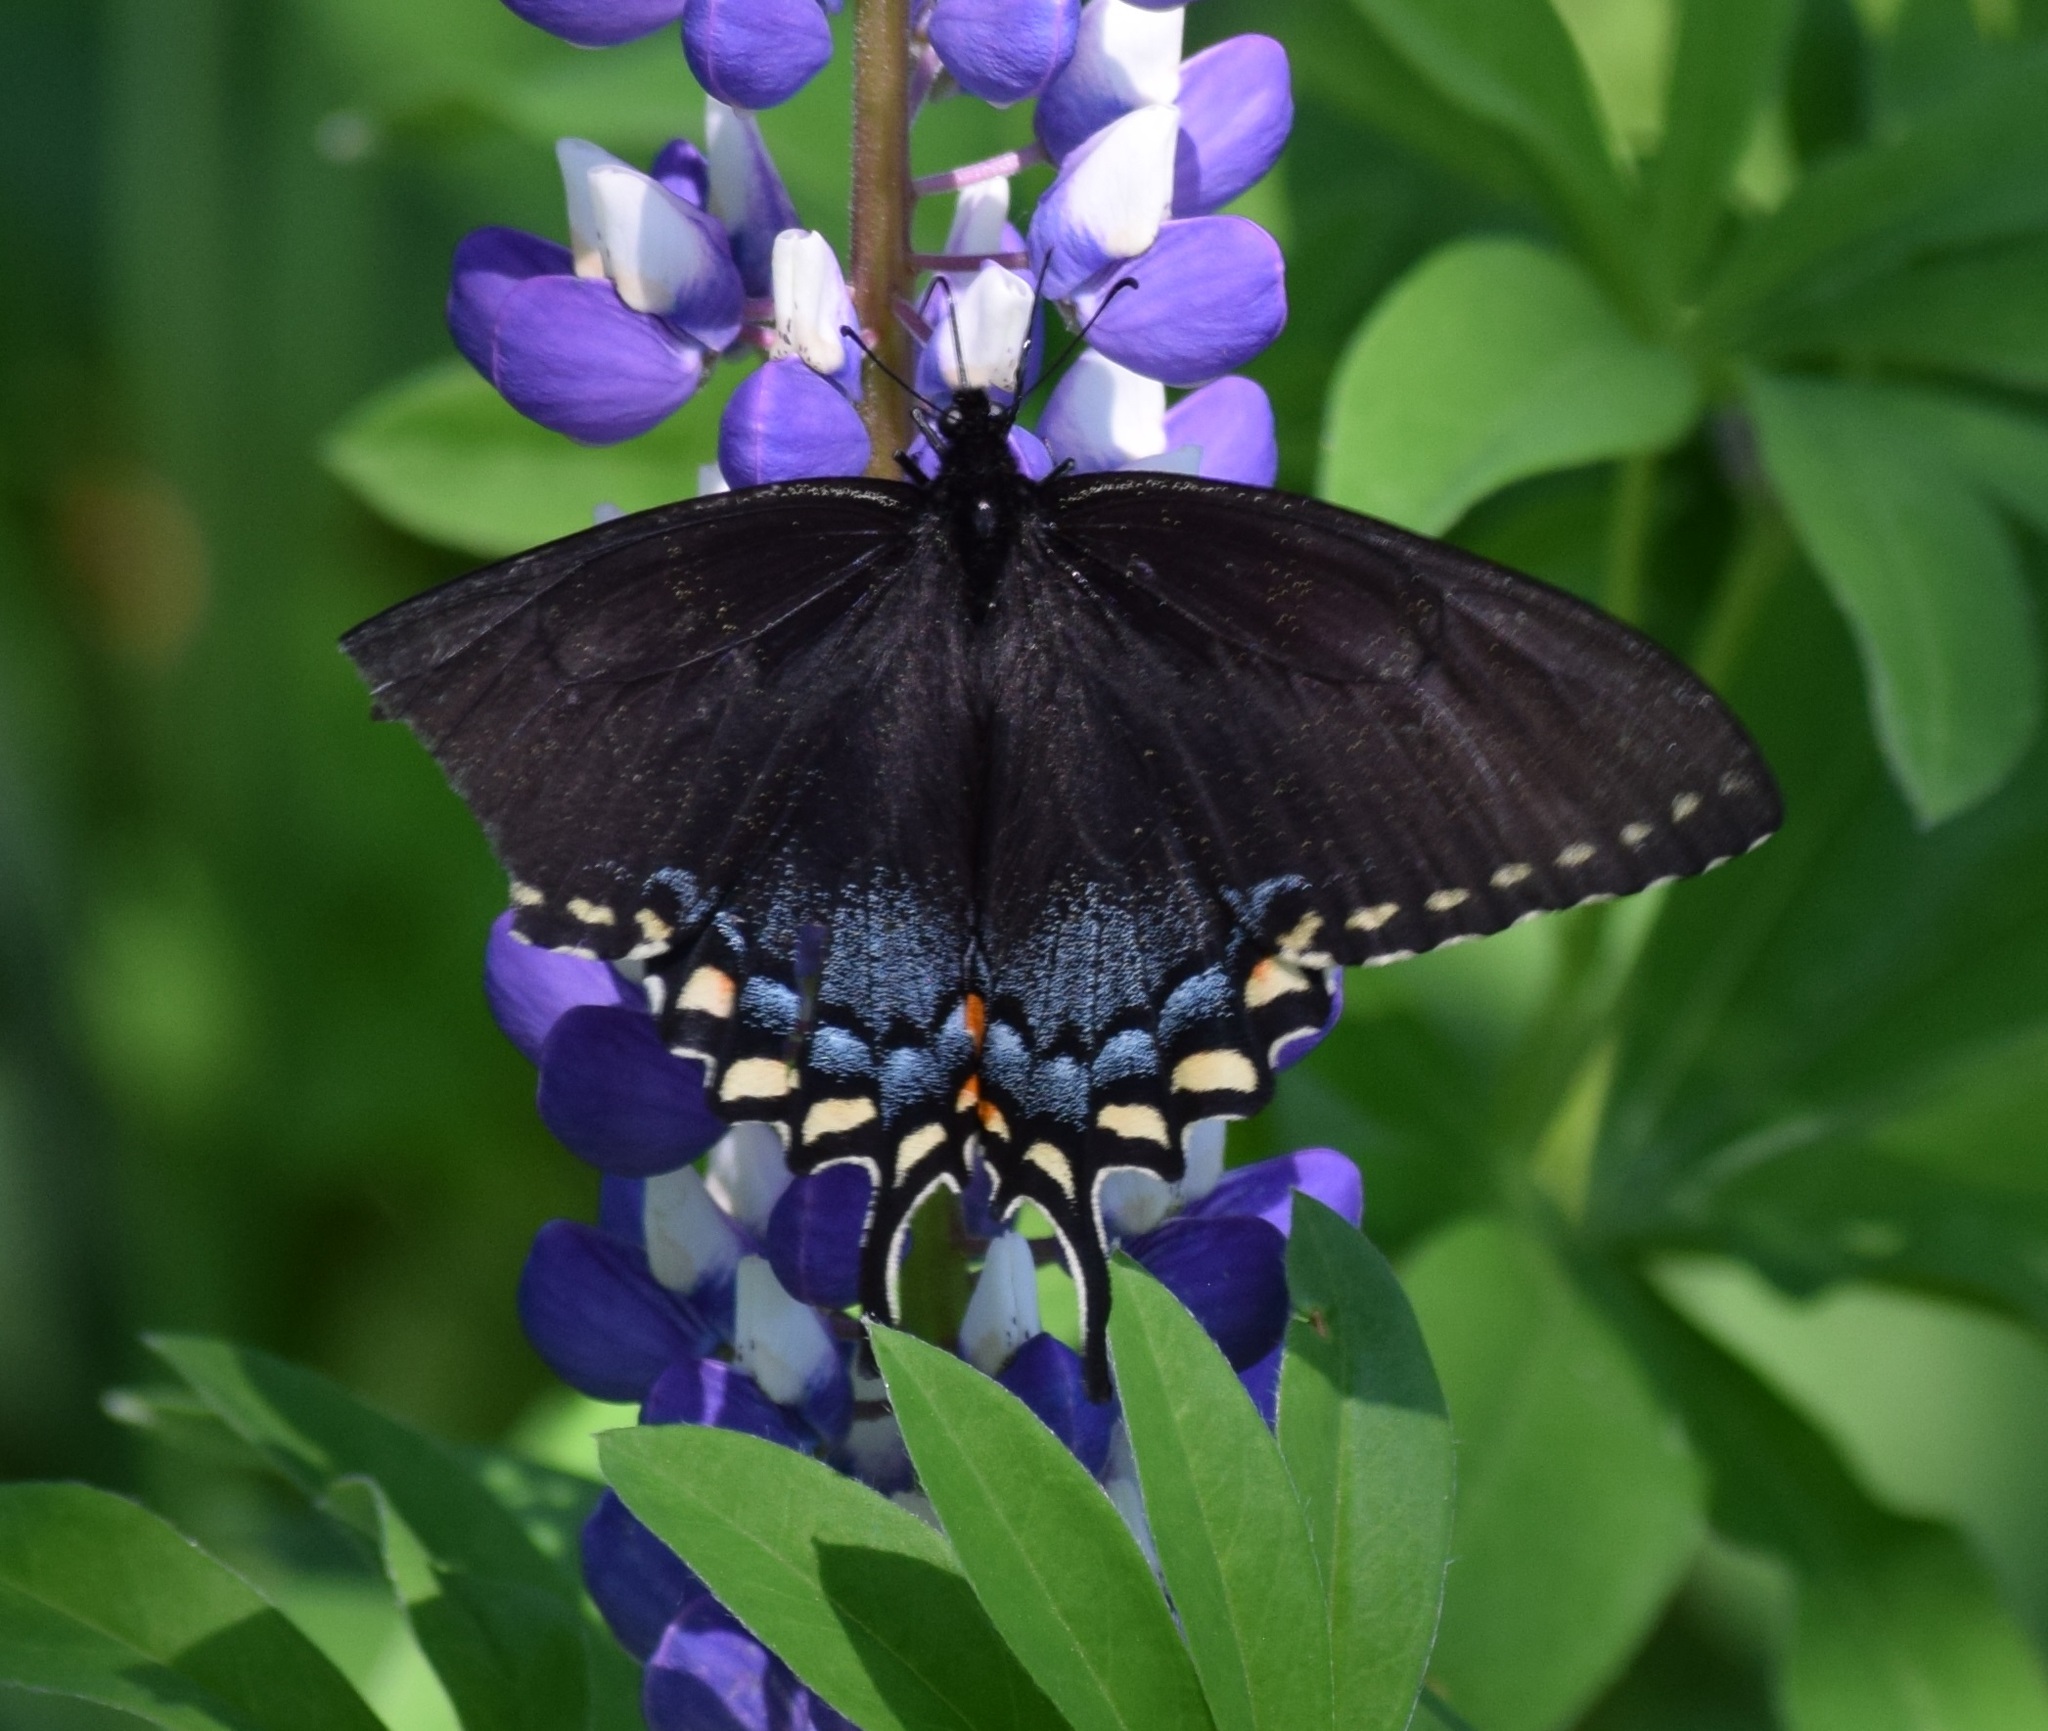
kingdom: Animalia
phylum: Arthropoda
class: Insecta
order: Lepidoptera
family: Papilionidae
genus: Papilio
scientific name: Papilio glaucus
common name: Tiger swallowtail
